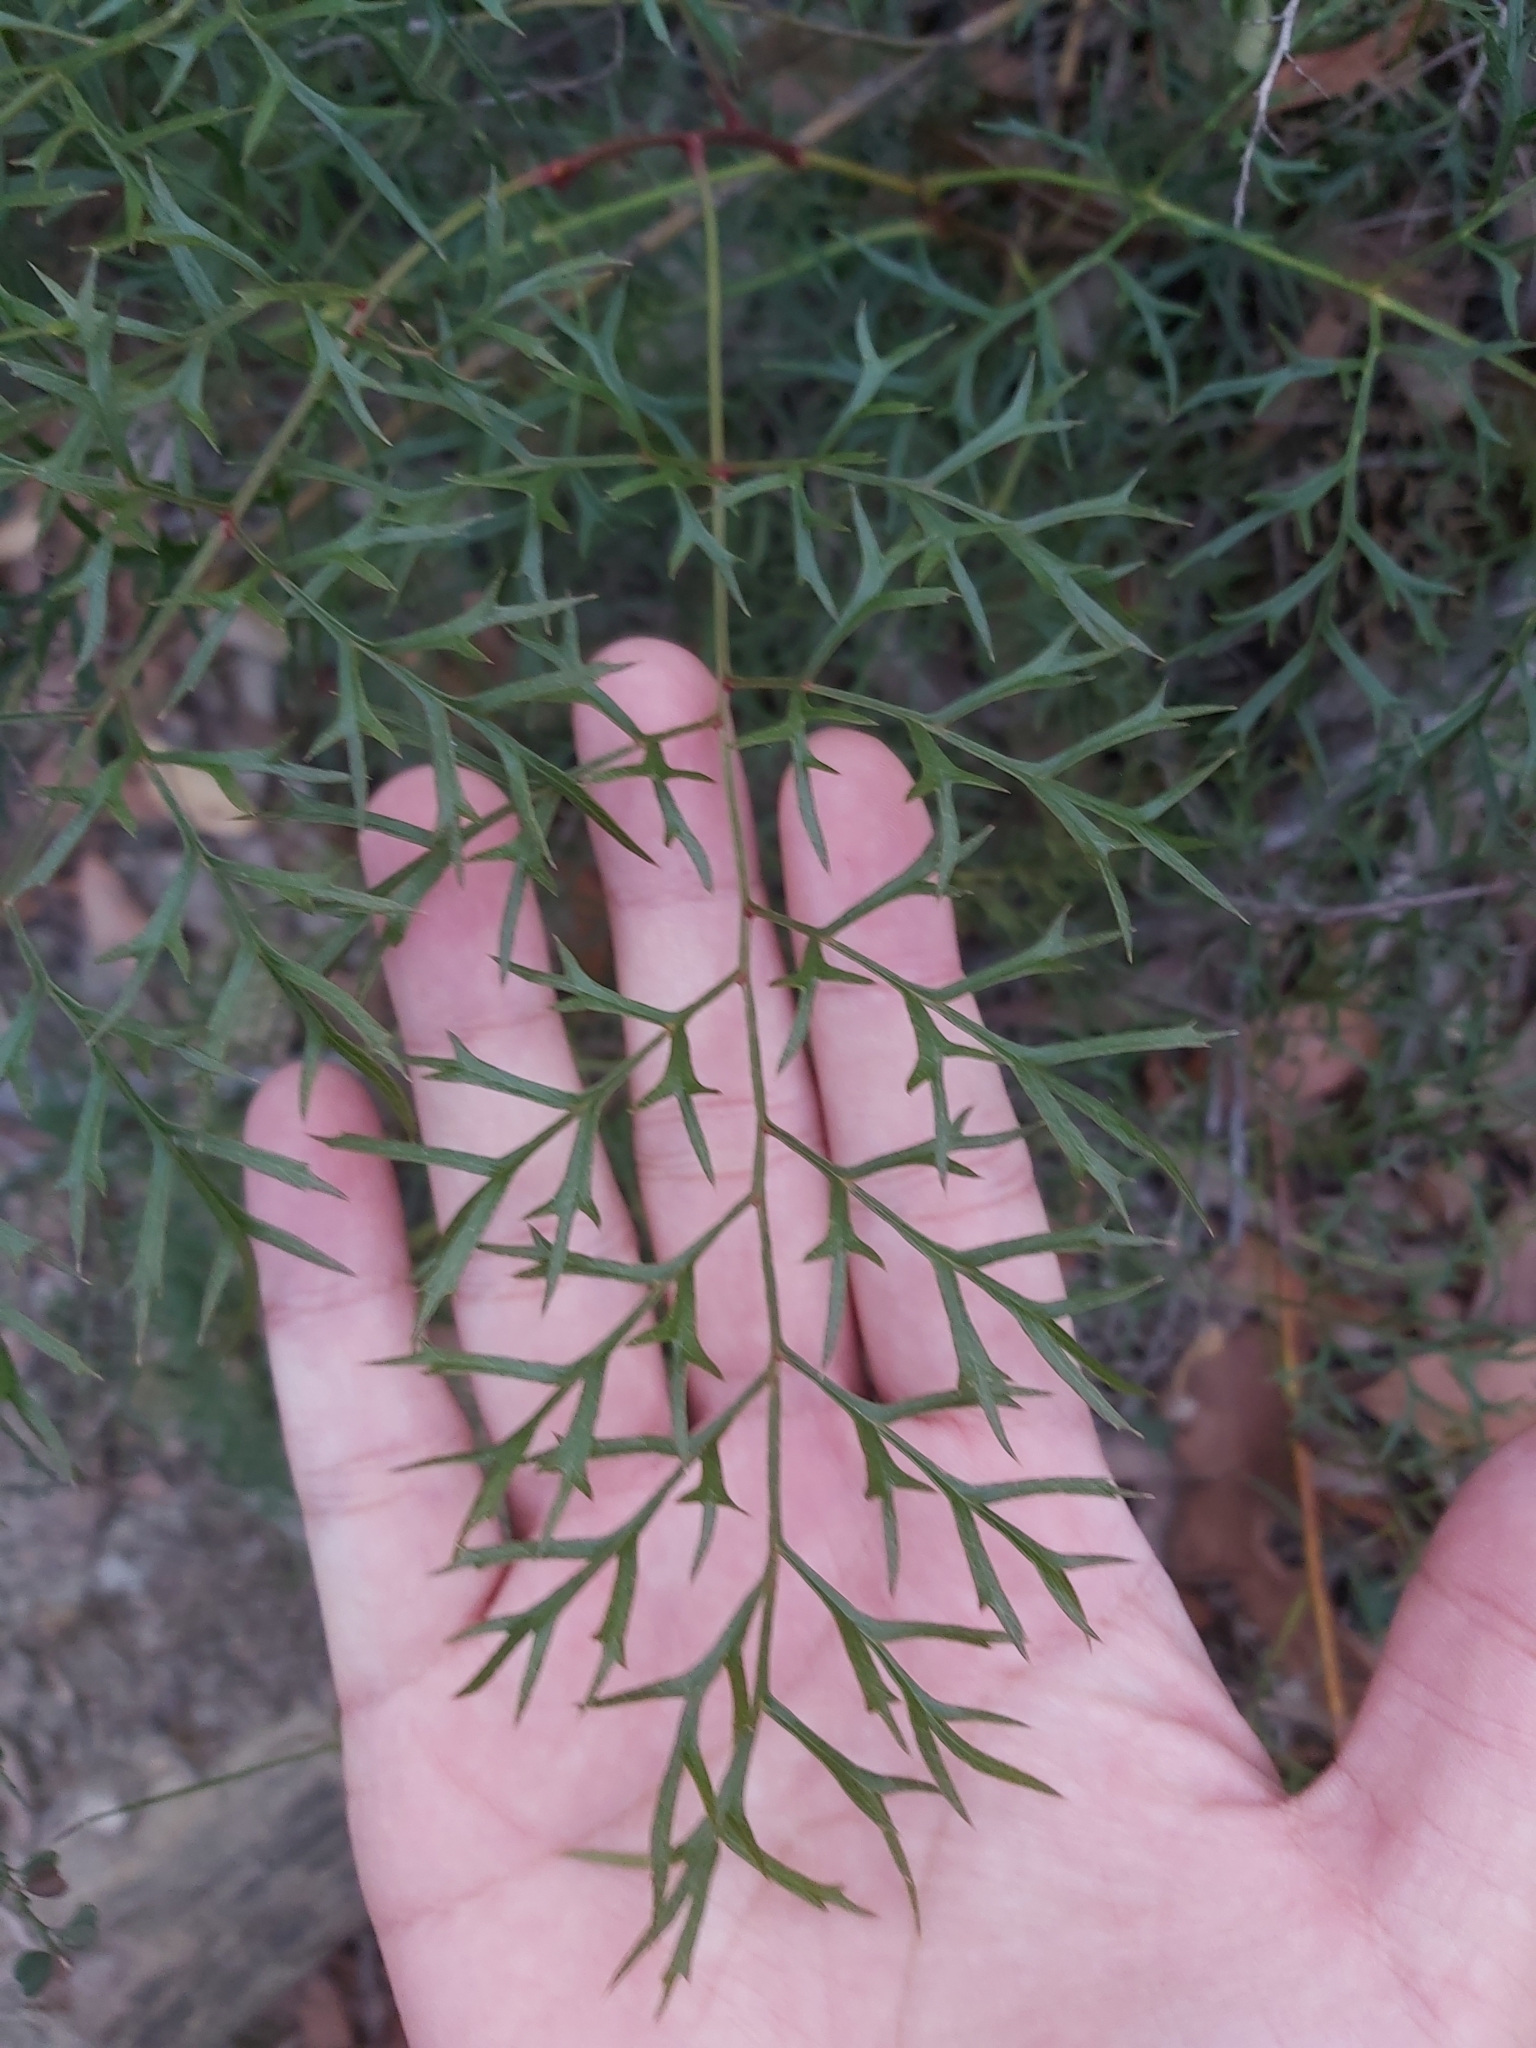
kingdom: Plantae
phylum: Tracheophyta
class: Magnoliopsida
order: Proteales
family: Proteaceae
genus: Lomatia
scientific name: Lomatia silaifolia
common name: Crinklebush
